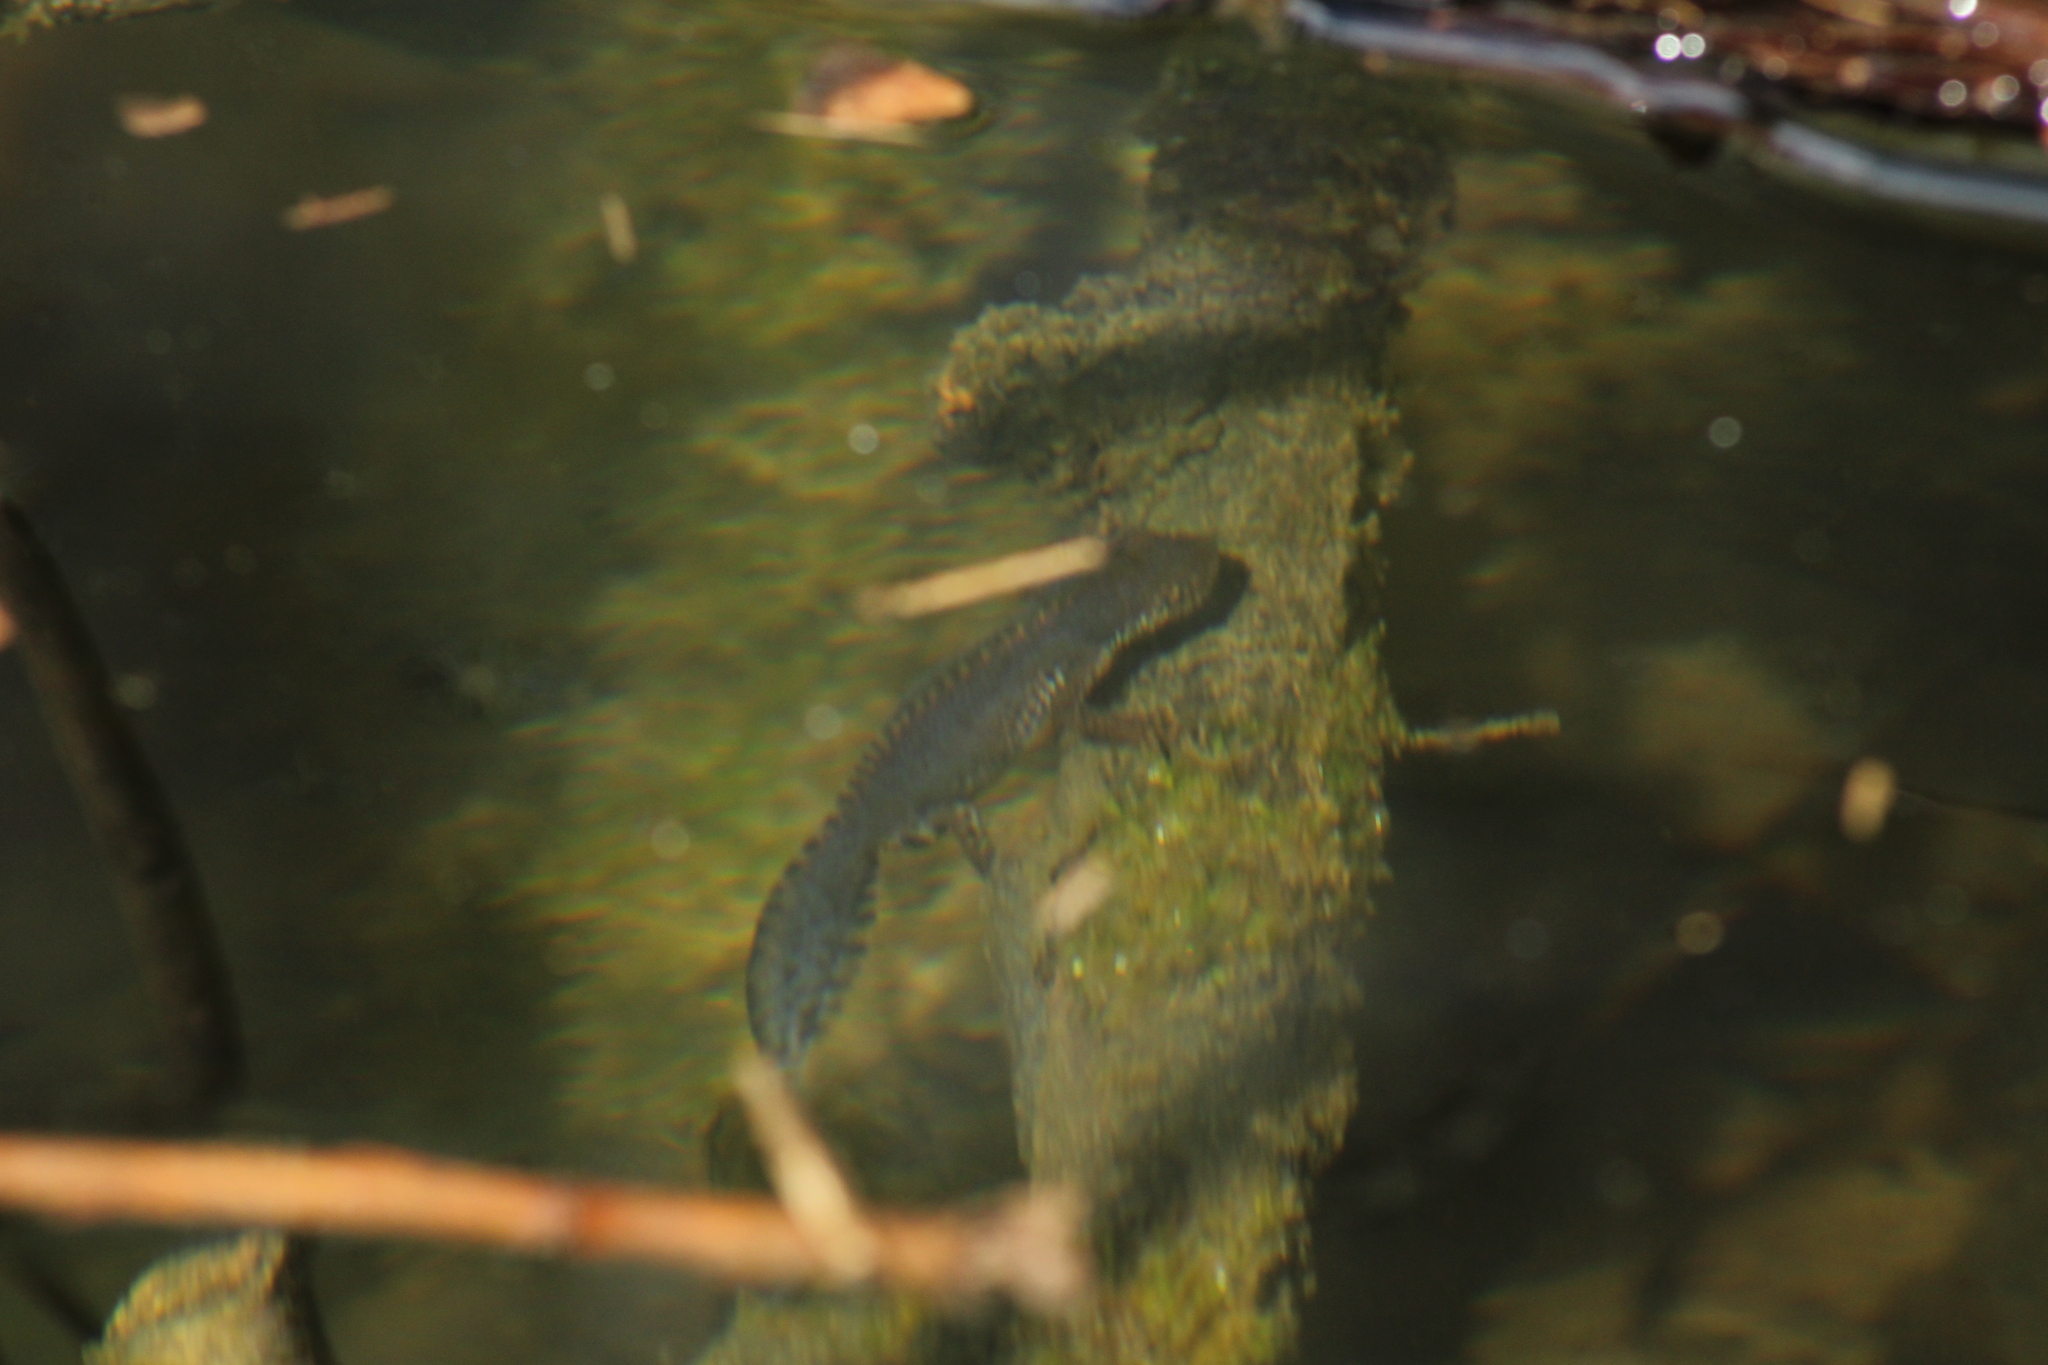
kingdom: Animalia
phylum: Chordata
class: Amphibia
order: Caudata
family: Salamandridae
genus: Ichthyosaura
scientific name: Ichthyosaura alpestris
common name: Alpine newt
